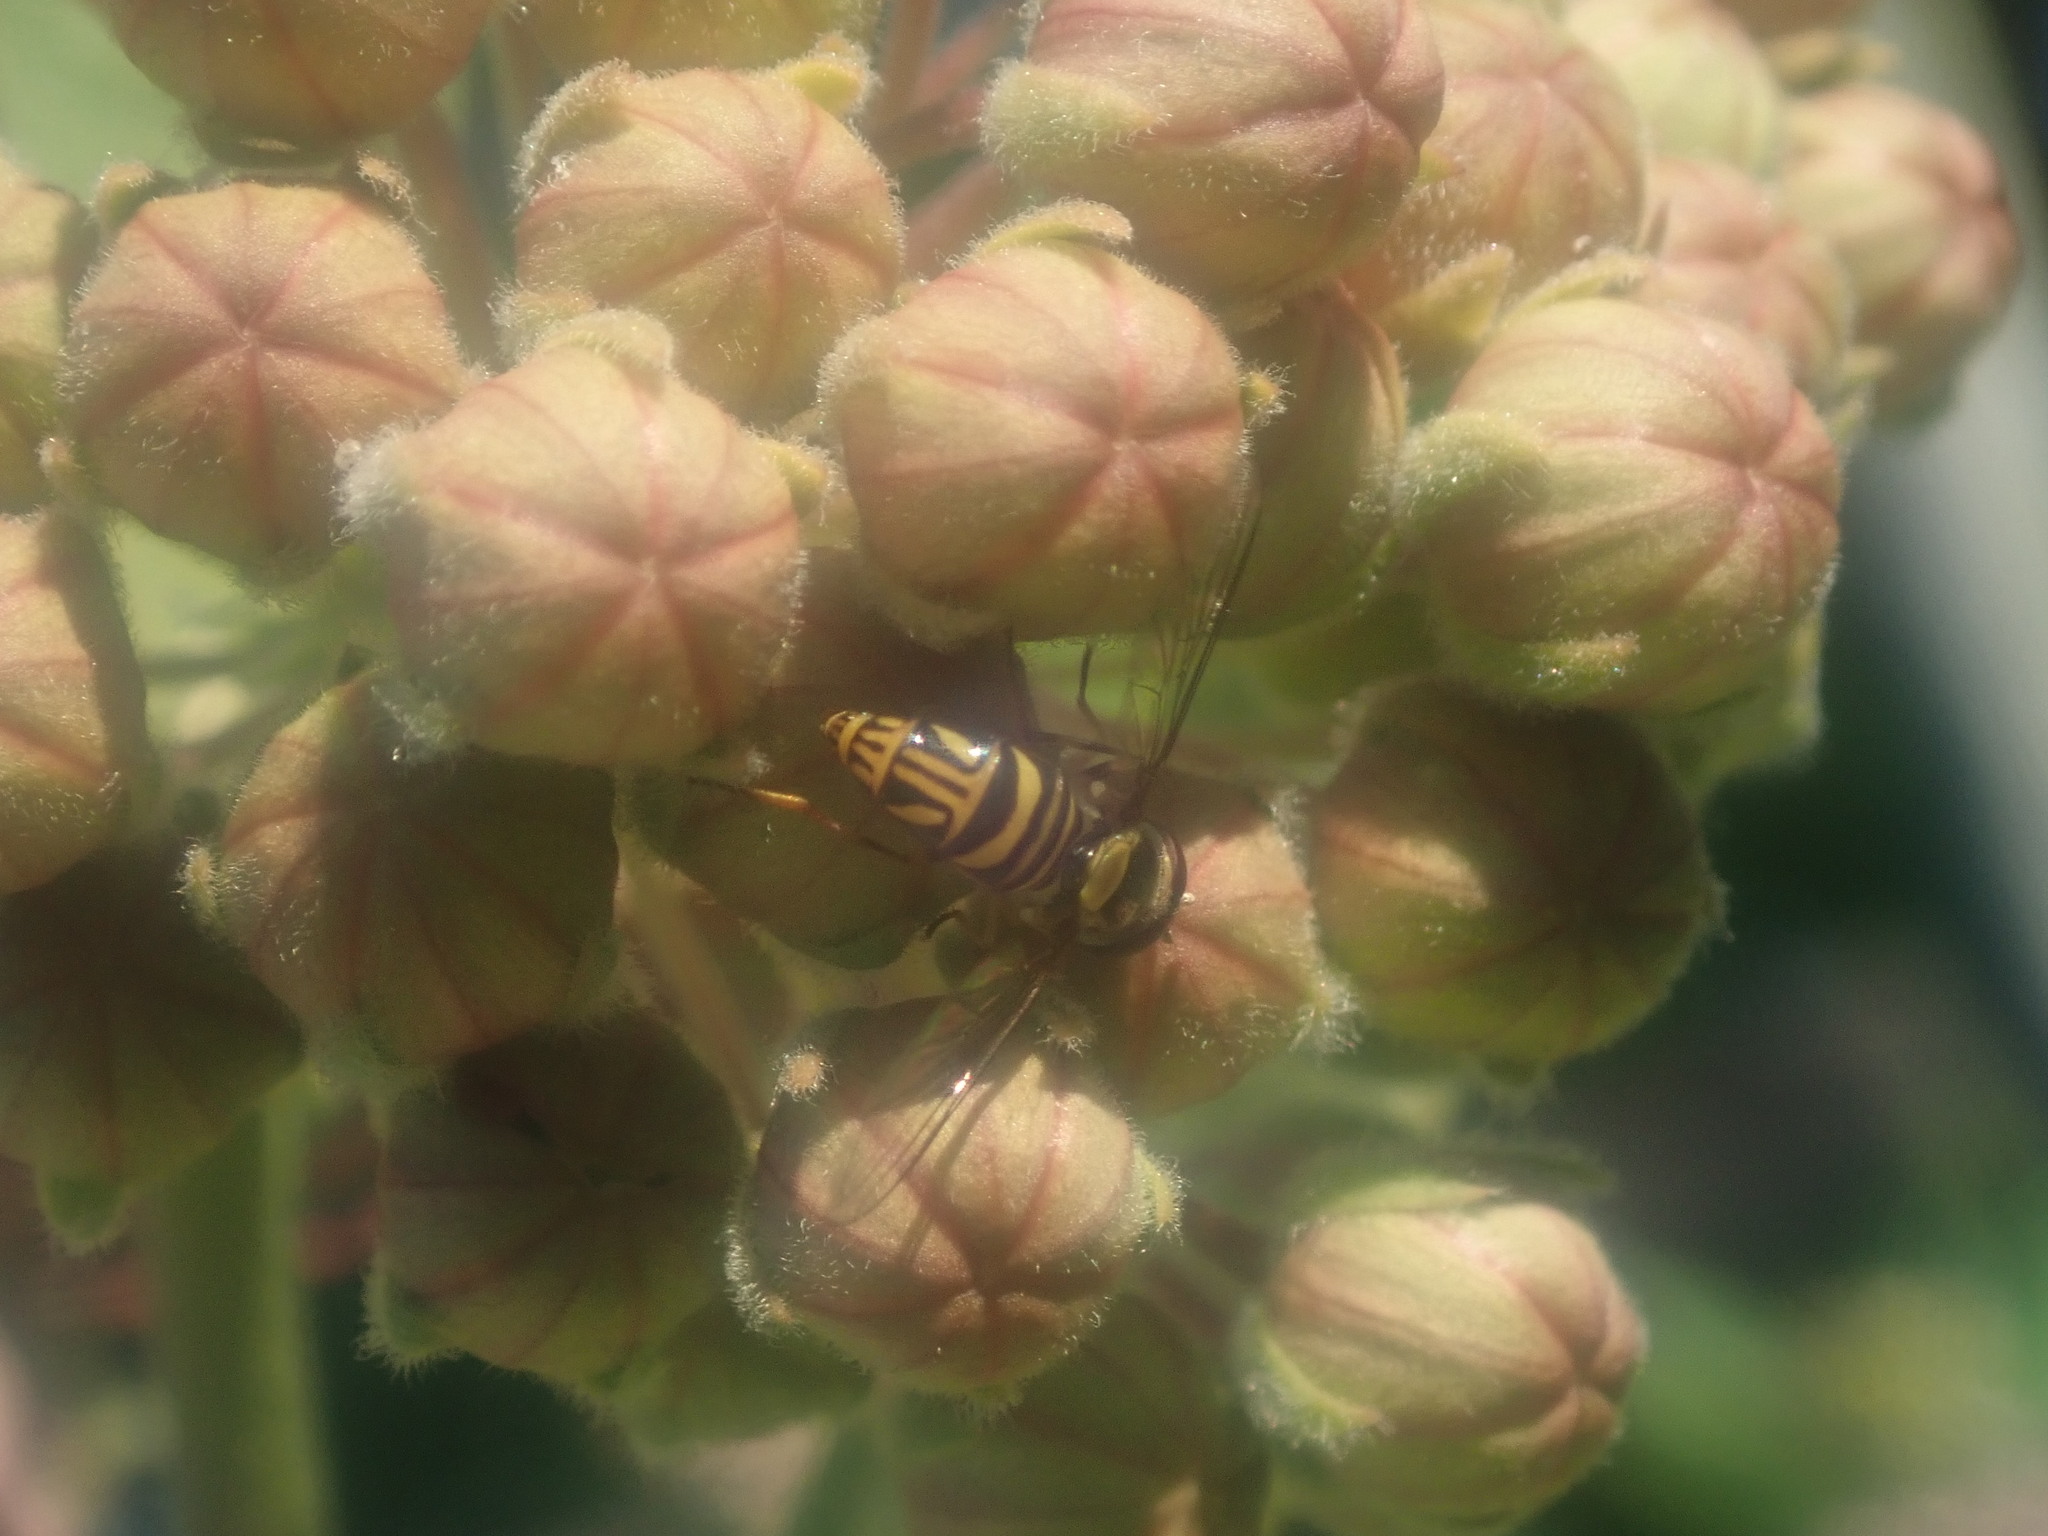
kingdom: Animalia
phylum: Arthropoda
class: Insecta
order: Diptera
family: Syrphidae
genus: Allograpta
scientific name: Allograpta obliqua
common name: Common oblique syrphid
